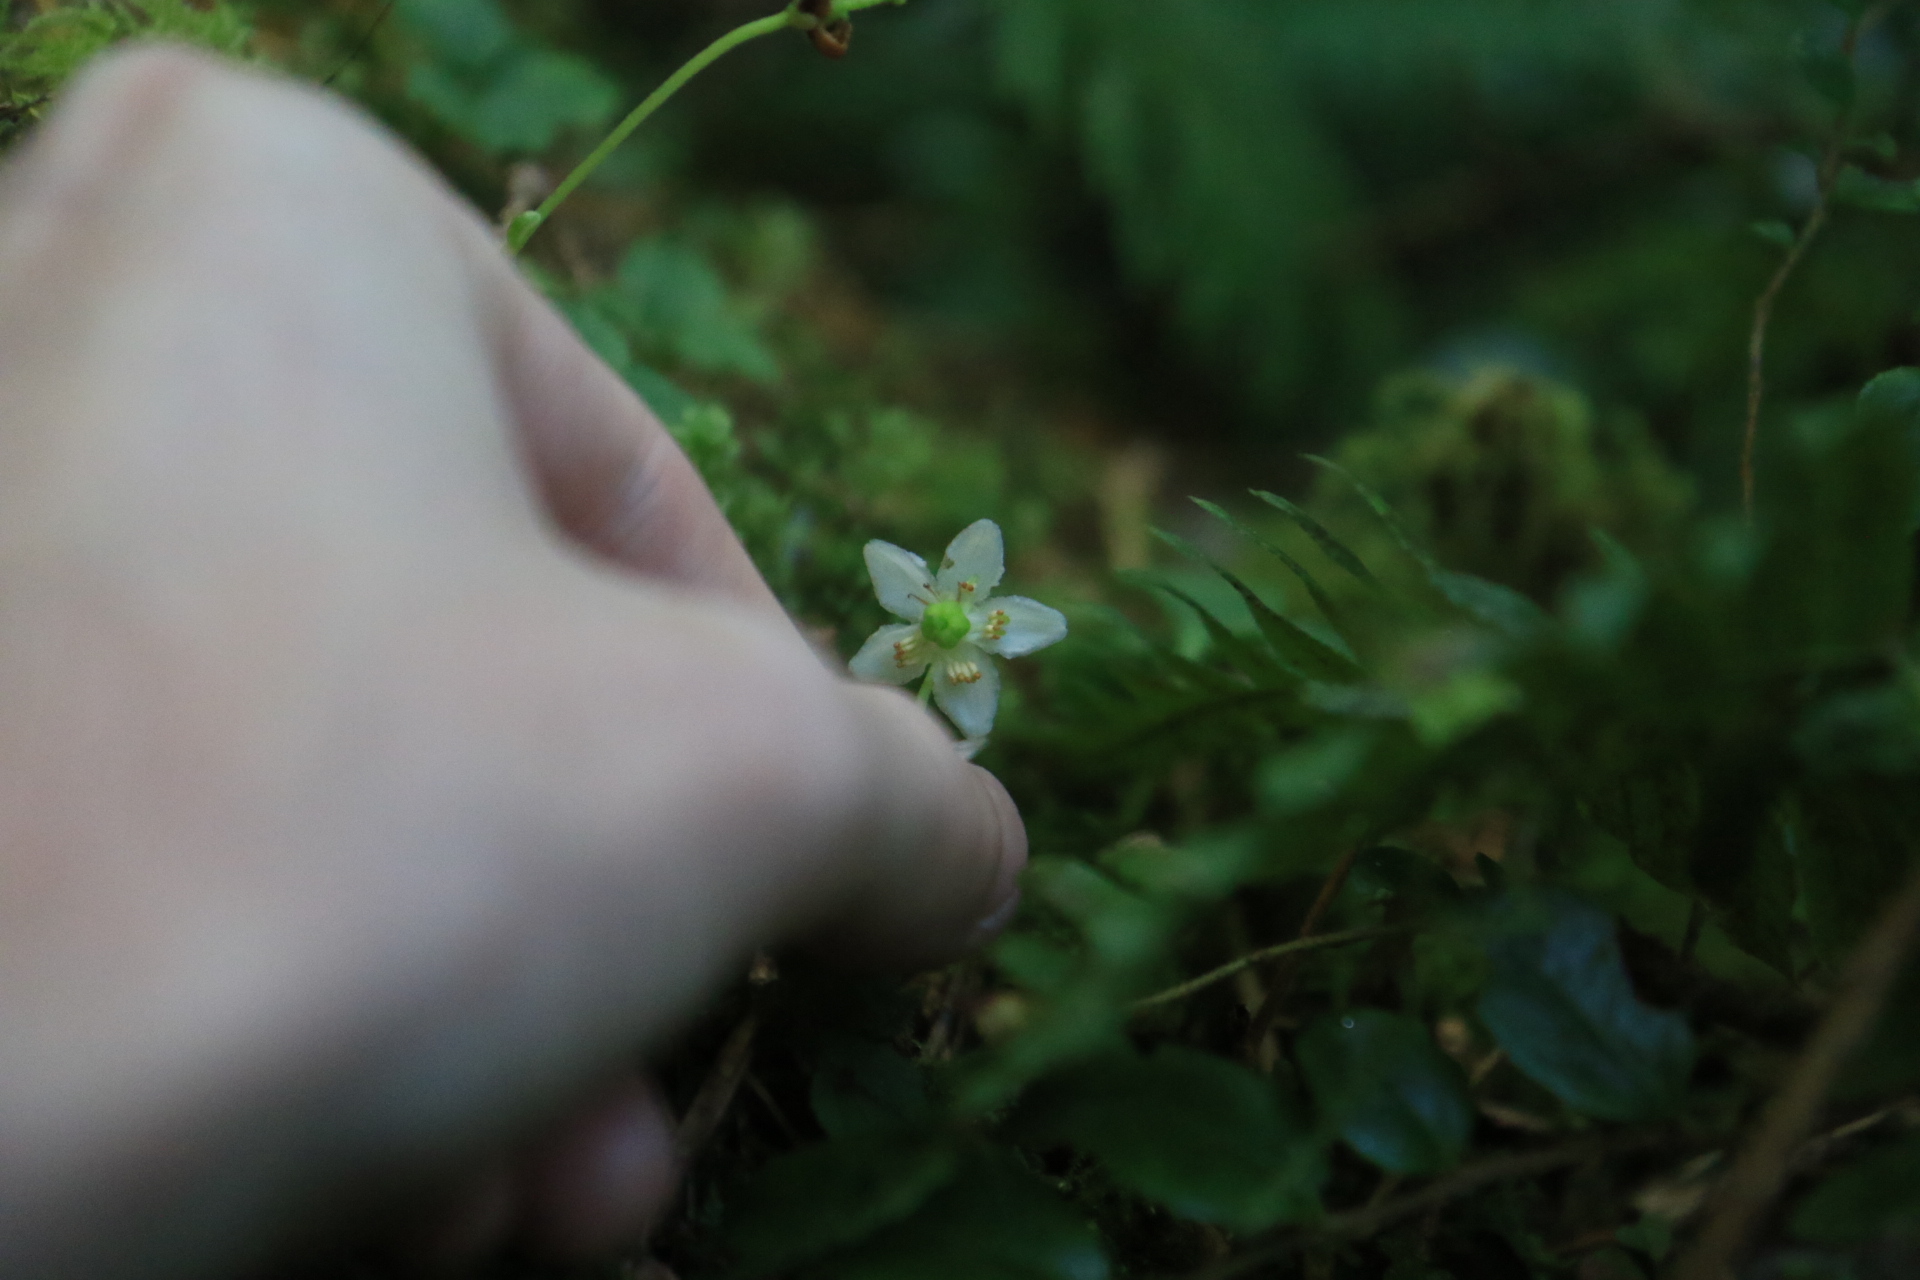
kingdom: Plantae
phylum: Tracheophyta
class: Magnoliopsida
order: Ericales
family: Ericaceae
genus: Moneses
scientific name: Moneses uniflora
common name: One-flowered wintergreen
